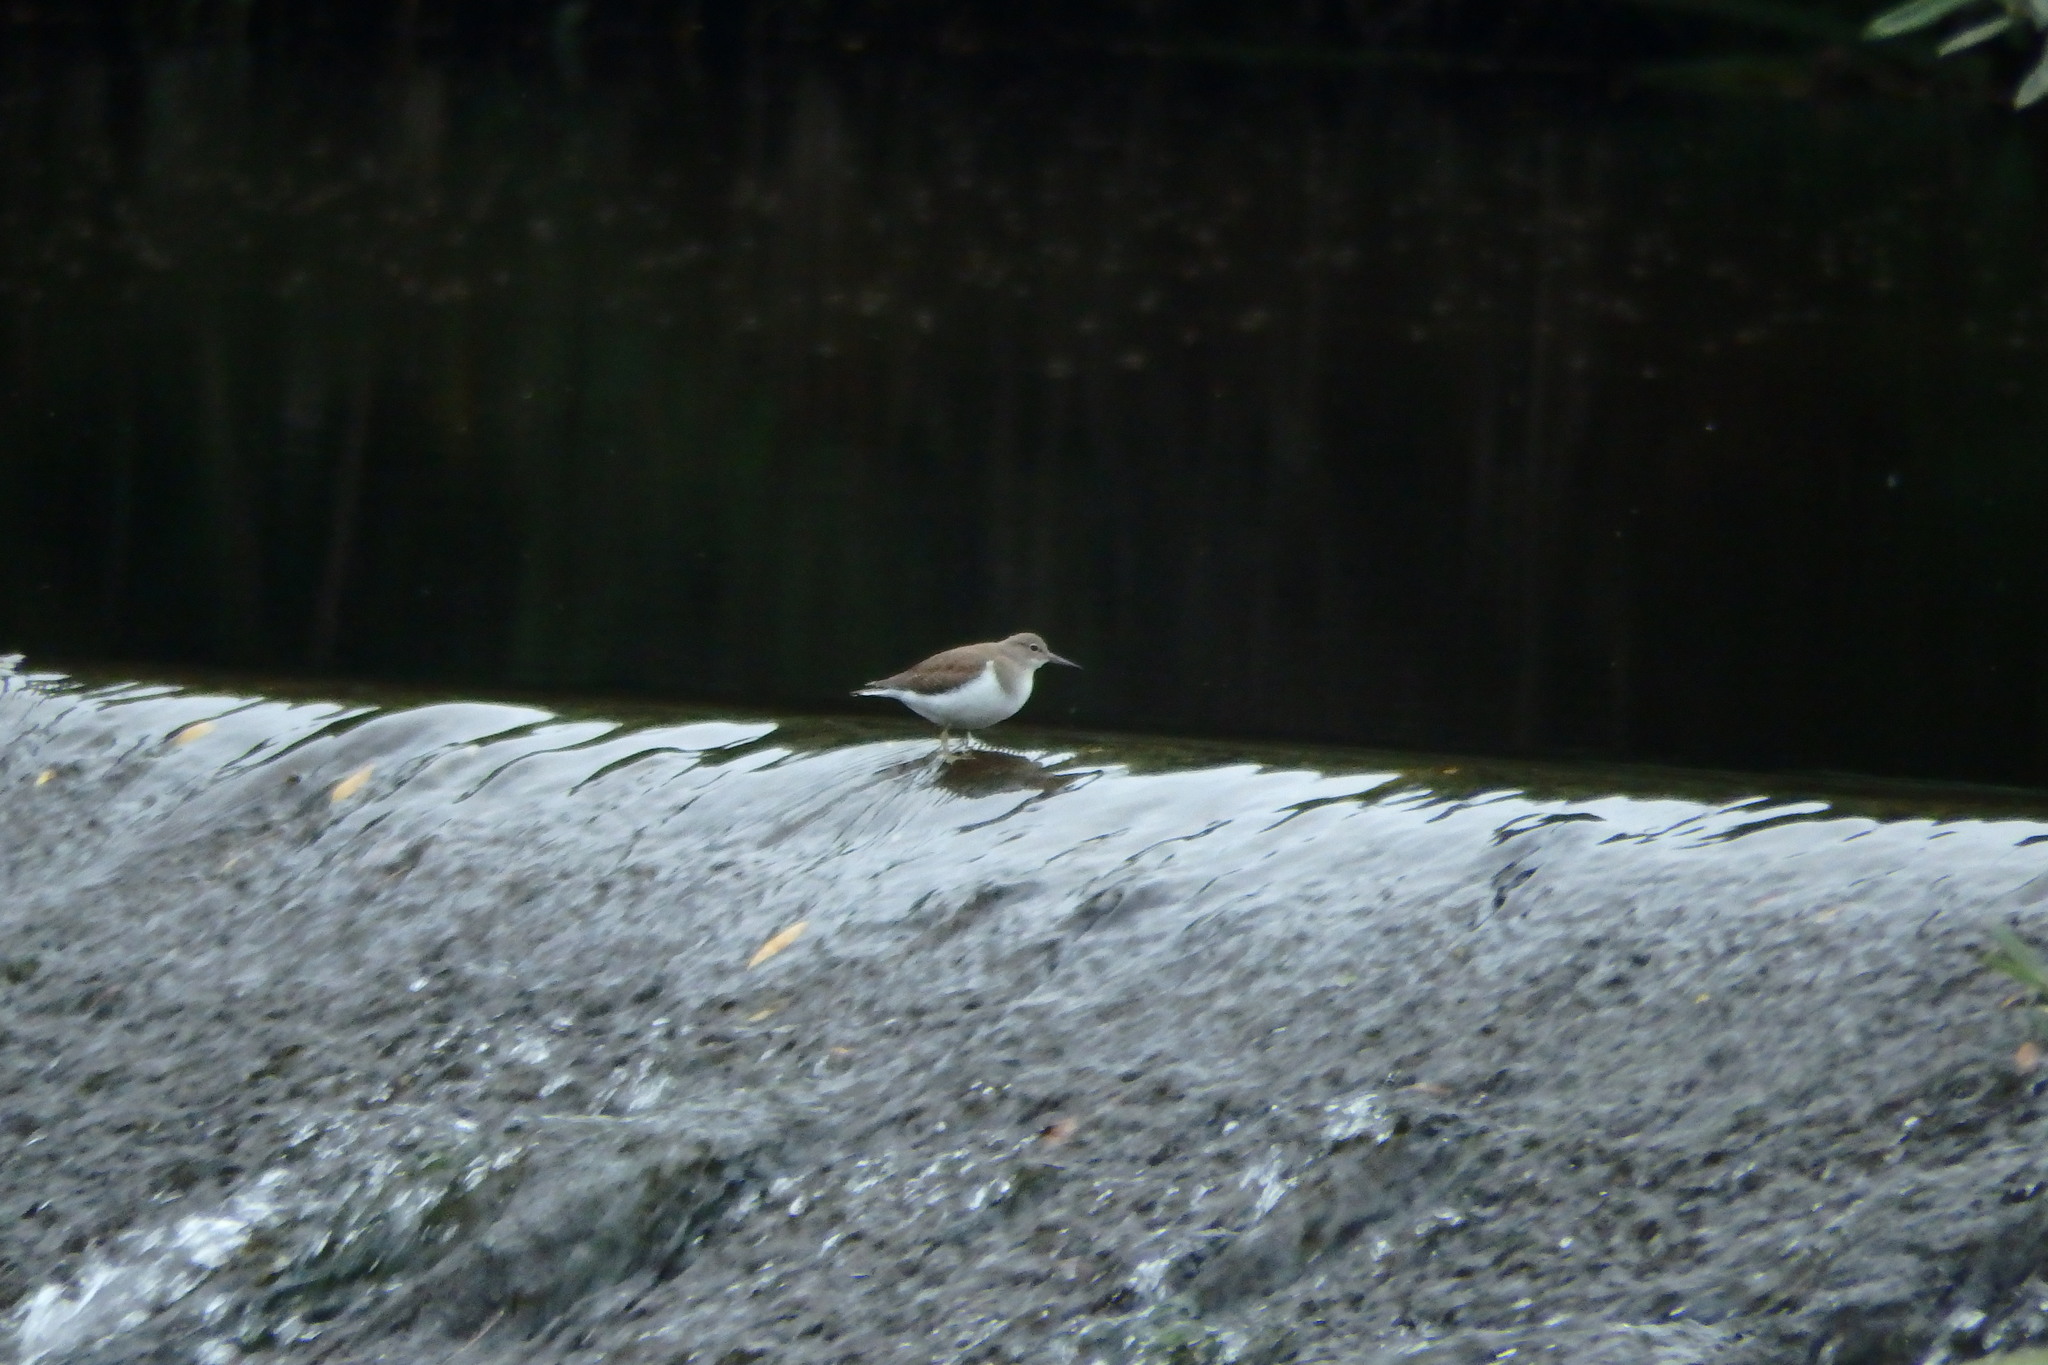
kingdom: Animalia
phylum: Chordata
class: Aves
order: Charadriiformes
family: Scolopacidae
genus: Actitis
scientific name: Actitis hypoleucos
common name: Common sandpiper
